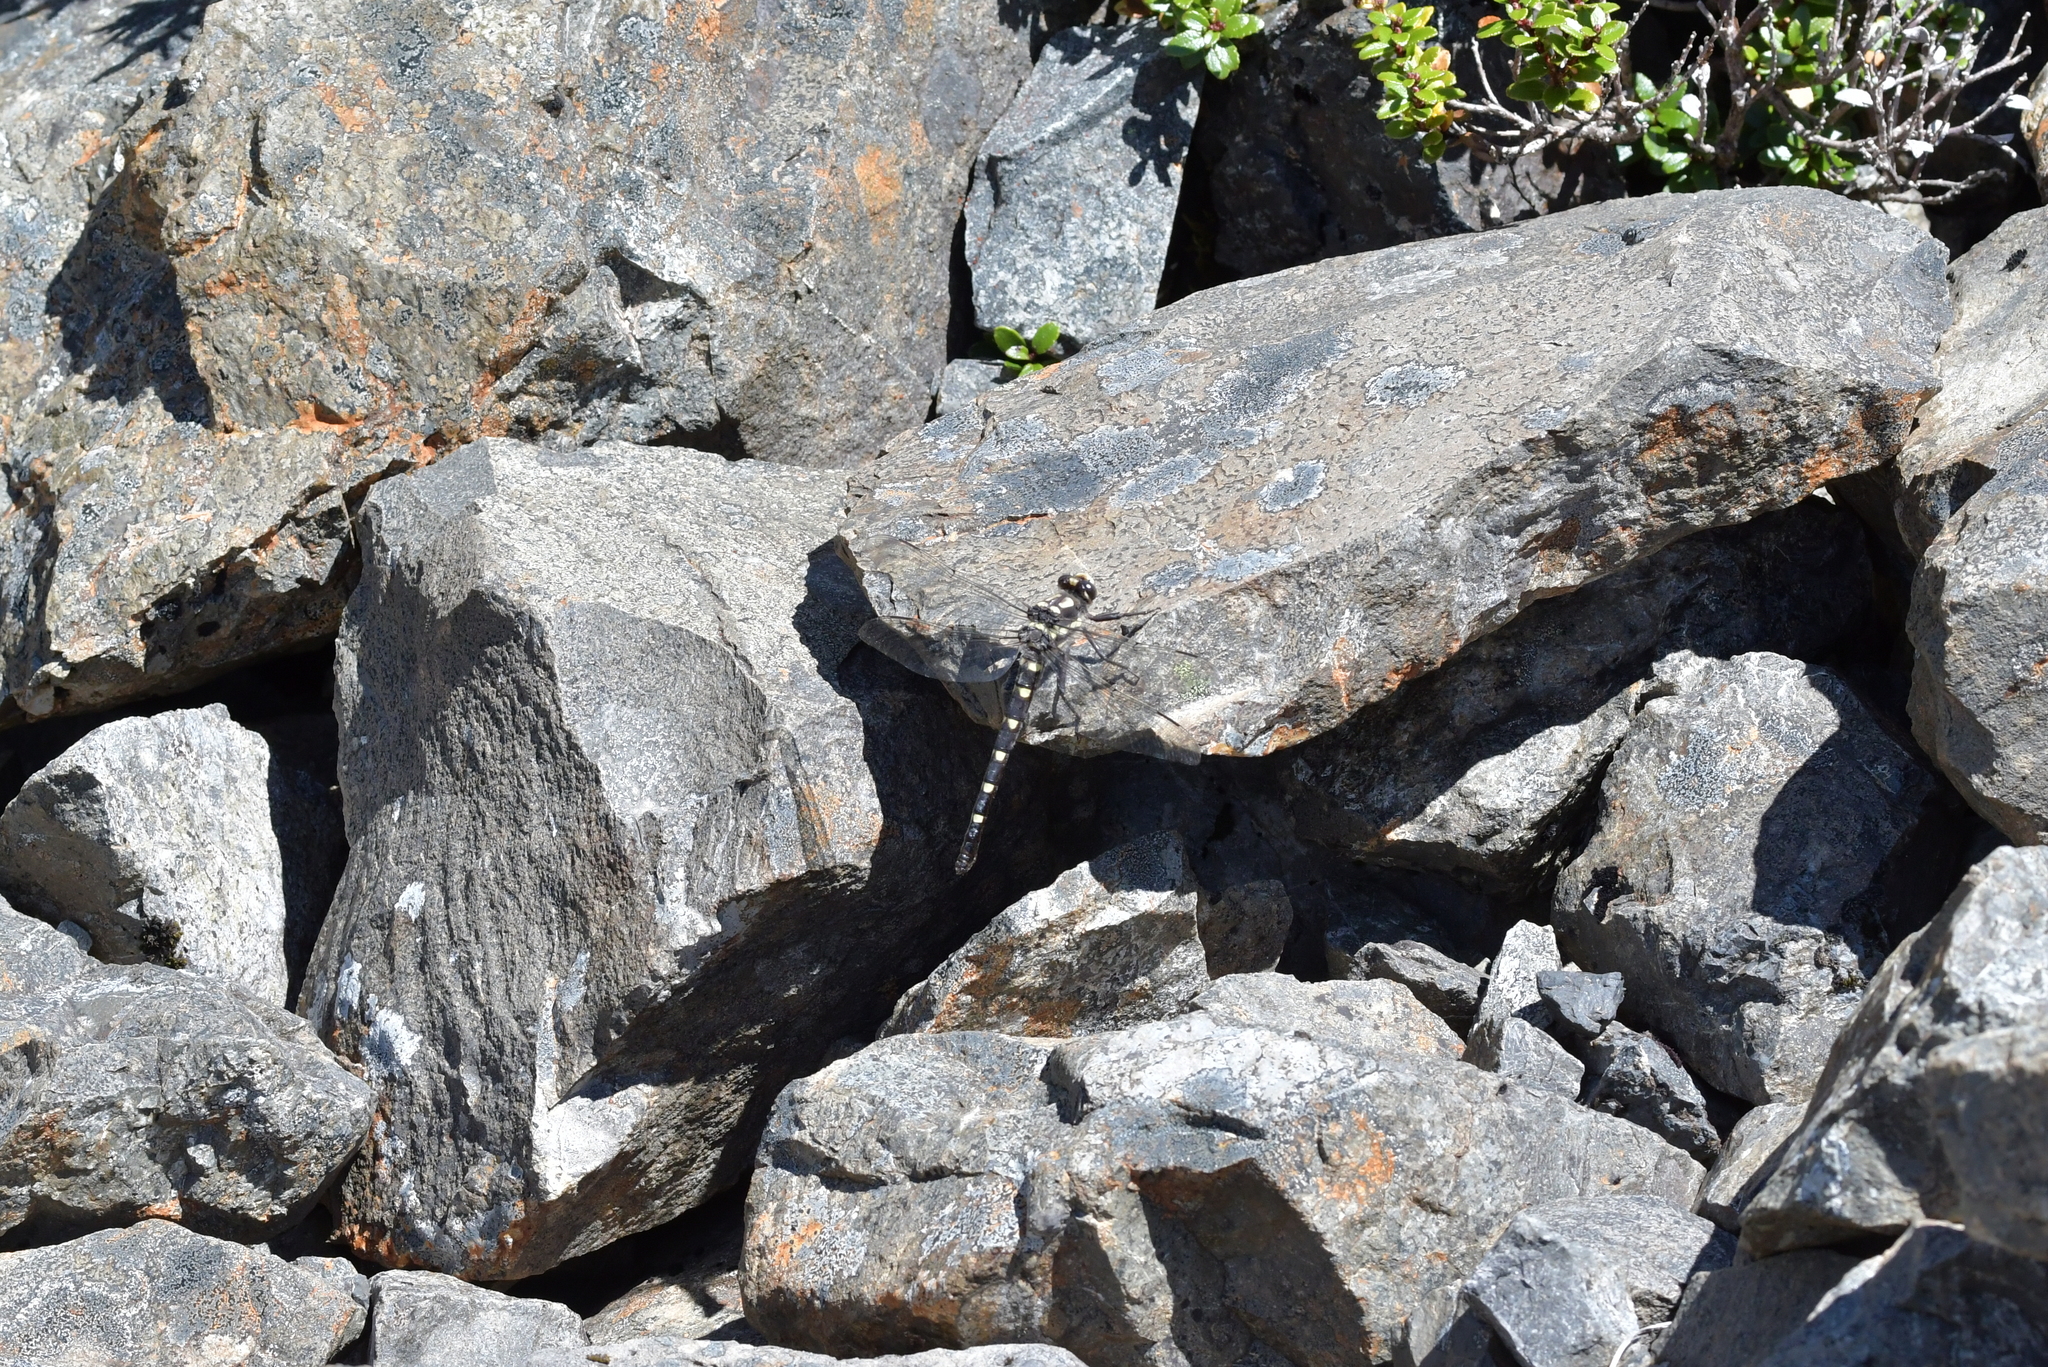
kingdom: Animalia
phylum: Arthropoda
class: Insecta
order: Odonata
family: Petaluridae
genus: Uropetala
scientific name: Uropetala chiltoni
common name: Mountain giant dragonfly
